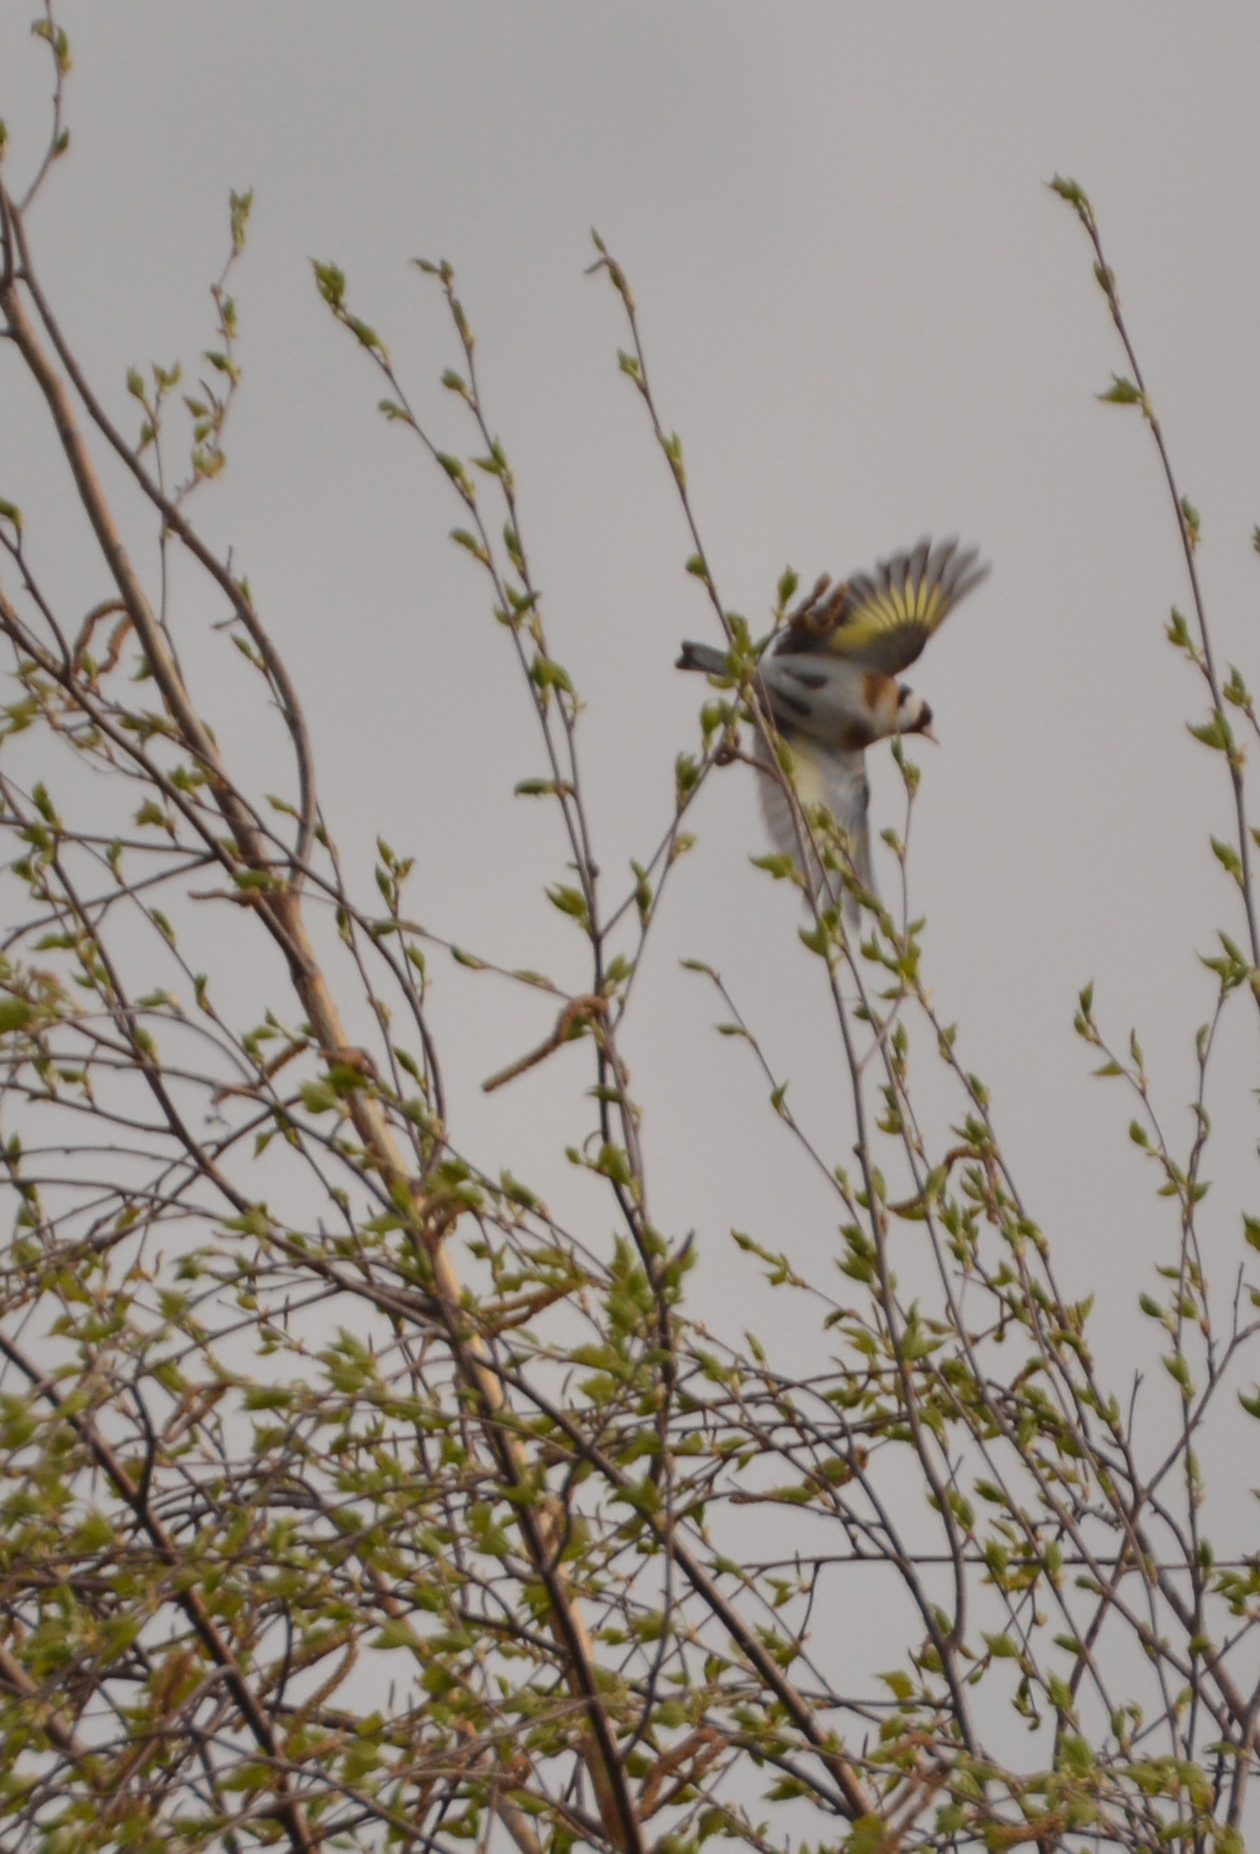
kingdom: Animalia
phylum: Chordata
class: Aves
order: Passeriformes
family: Fringillidae
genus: Carduelis
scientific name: Carduelis carduelis
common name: European goldfinch
